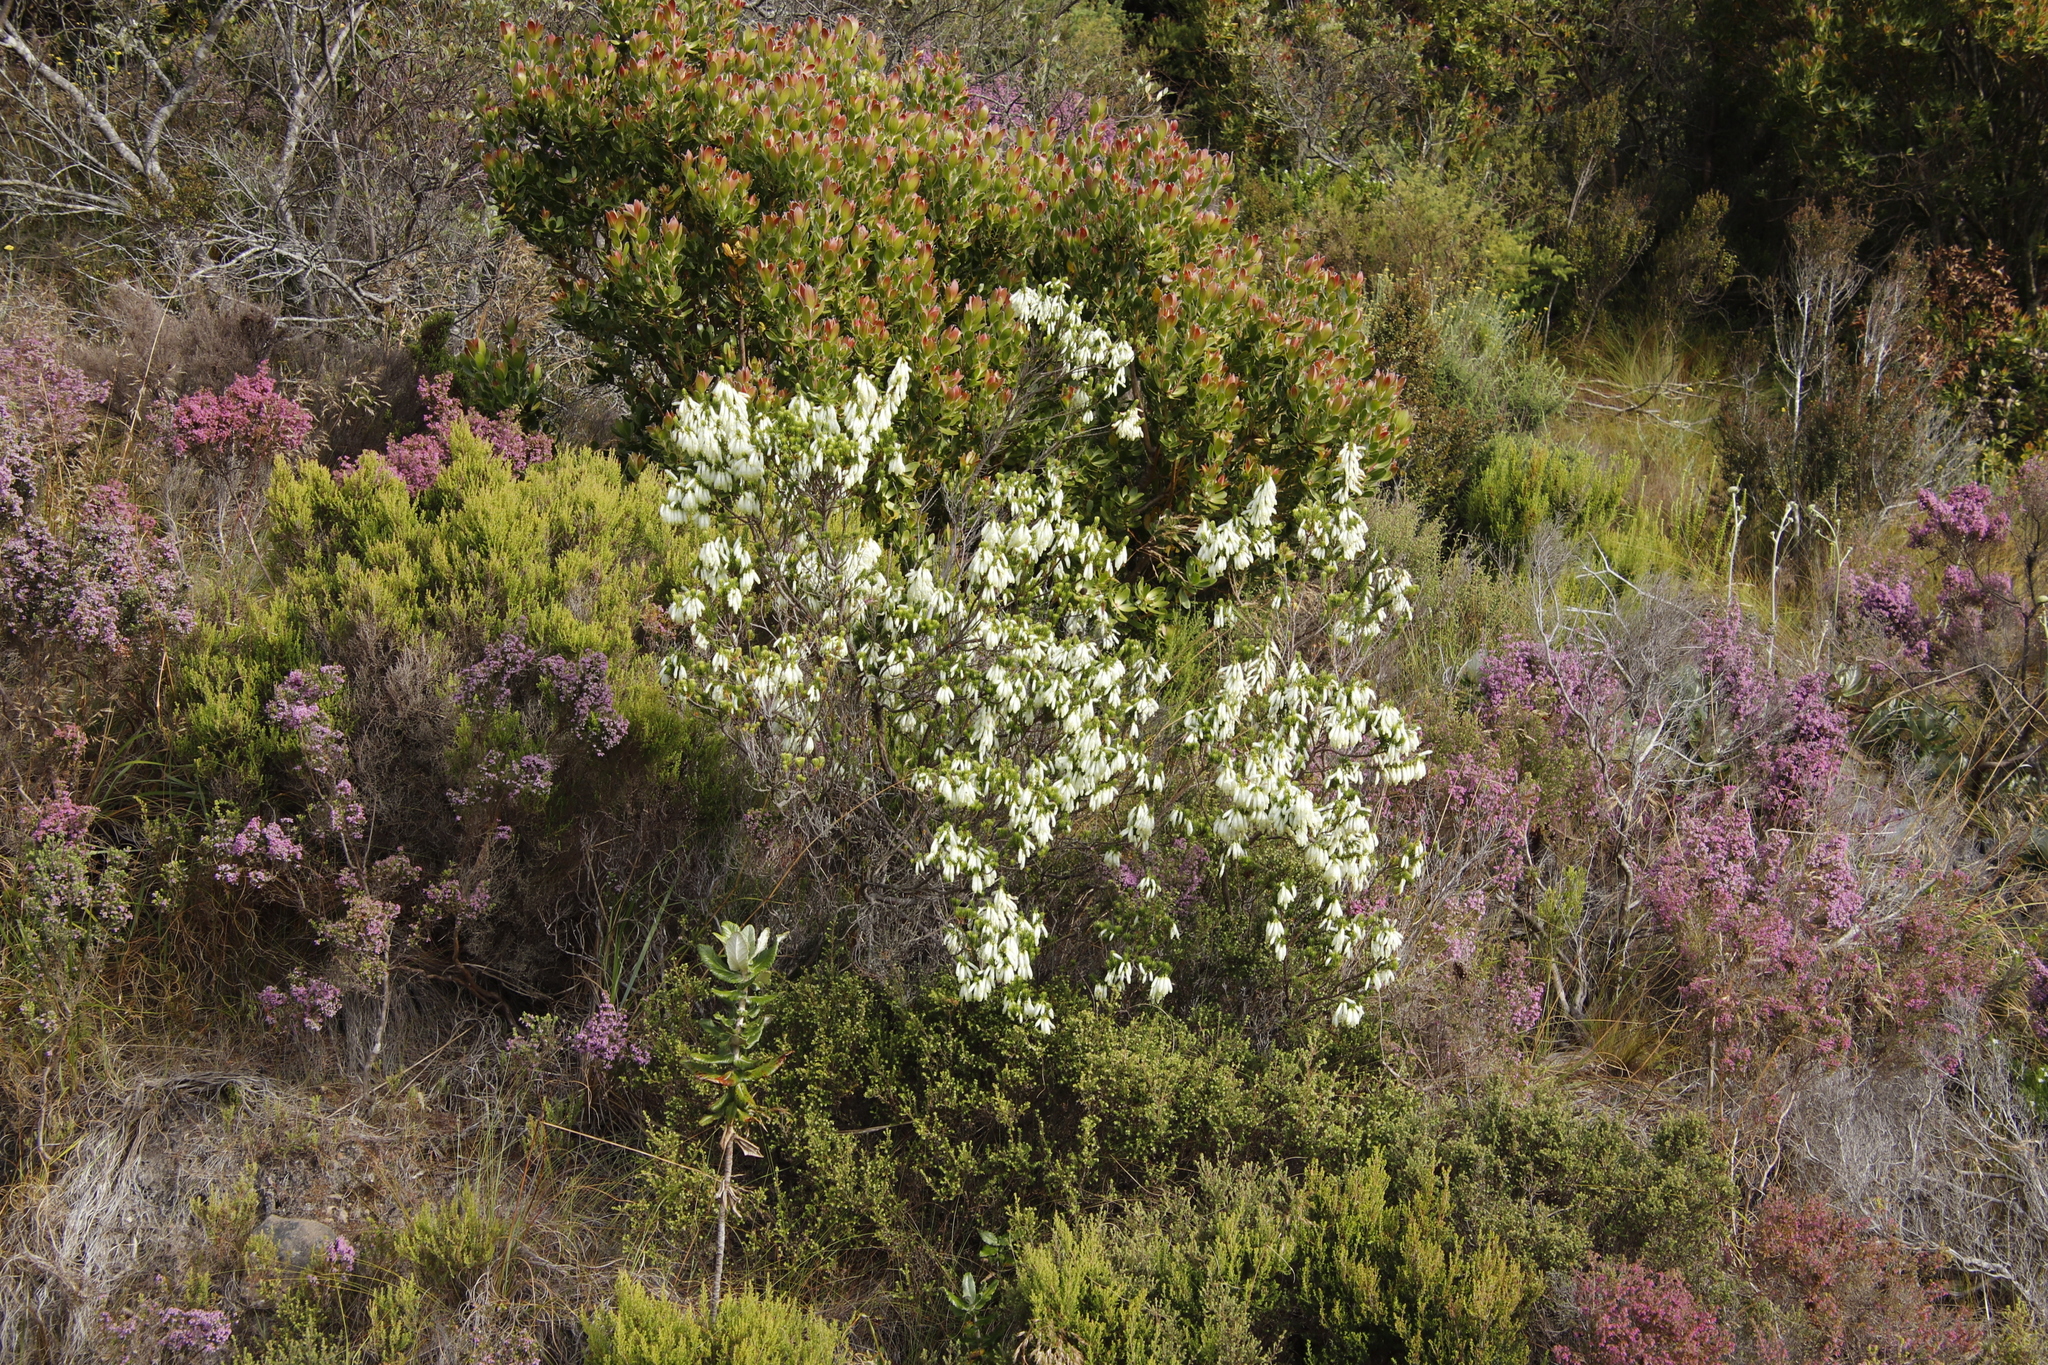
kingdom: Plantae
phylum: Tracheophyta
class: Magnoliopsida
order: Ericales
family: Ericaceae
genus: Erica
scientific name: Erica mammosa
